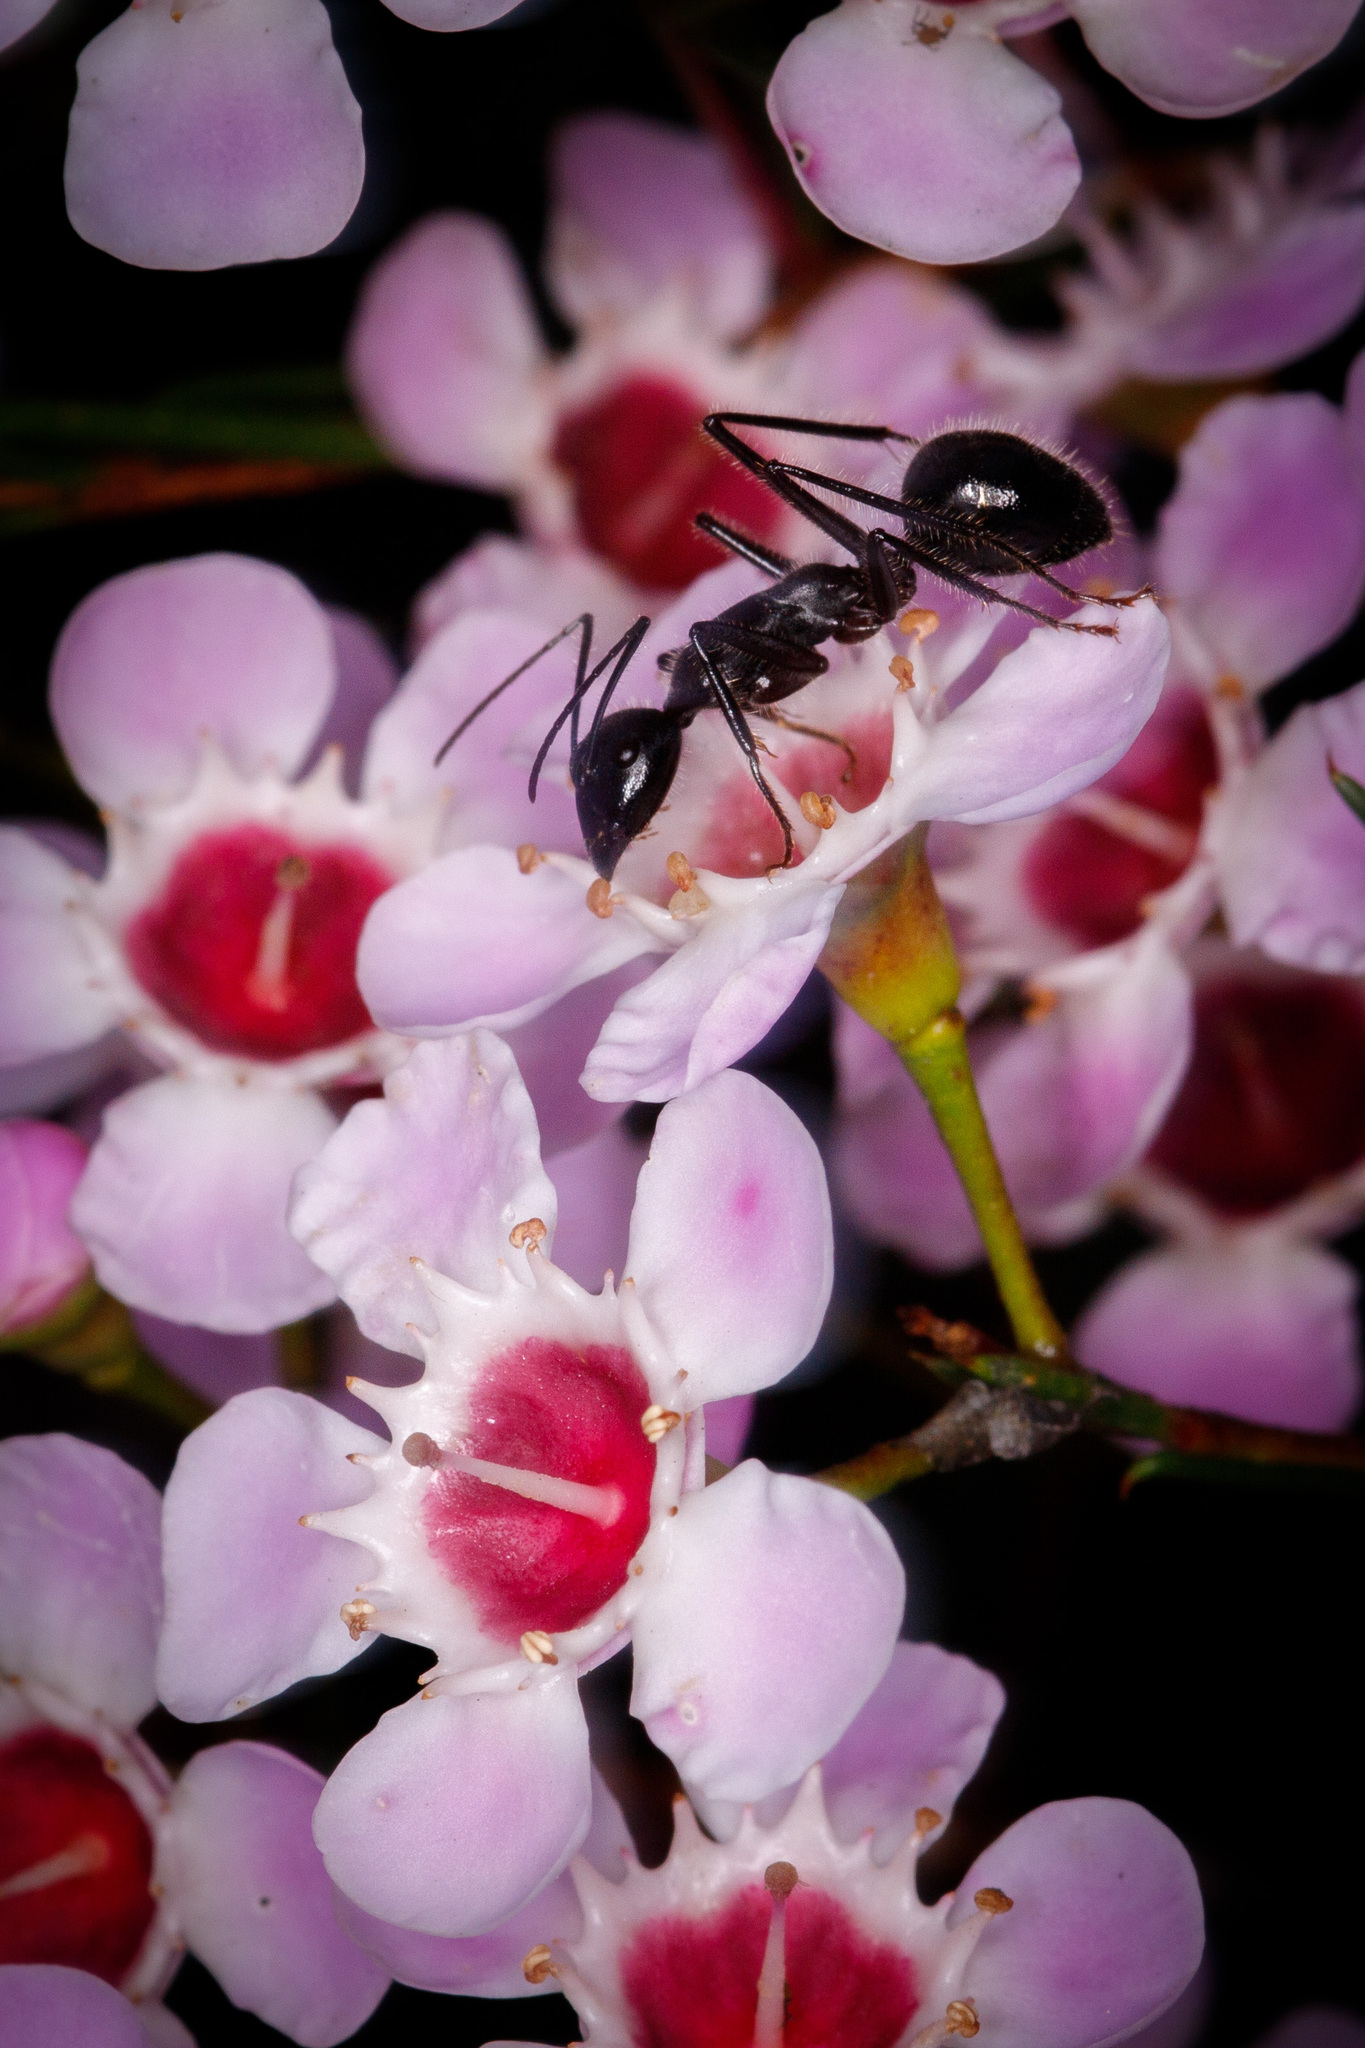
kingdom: Animalia
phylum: Arthropoda
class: Insecta
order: Hymenoptera
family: Formicidae
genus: Camponotus
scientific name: Camponotus molossus
